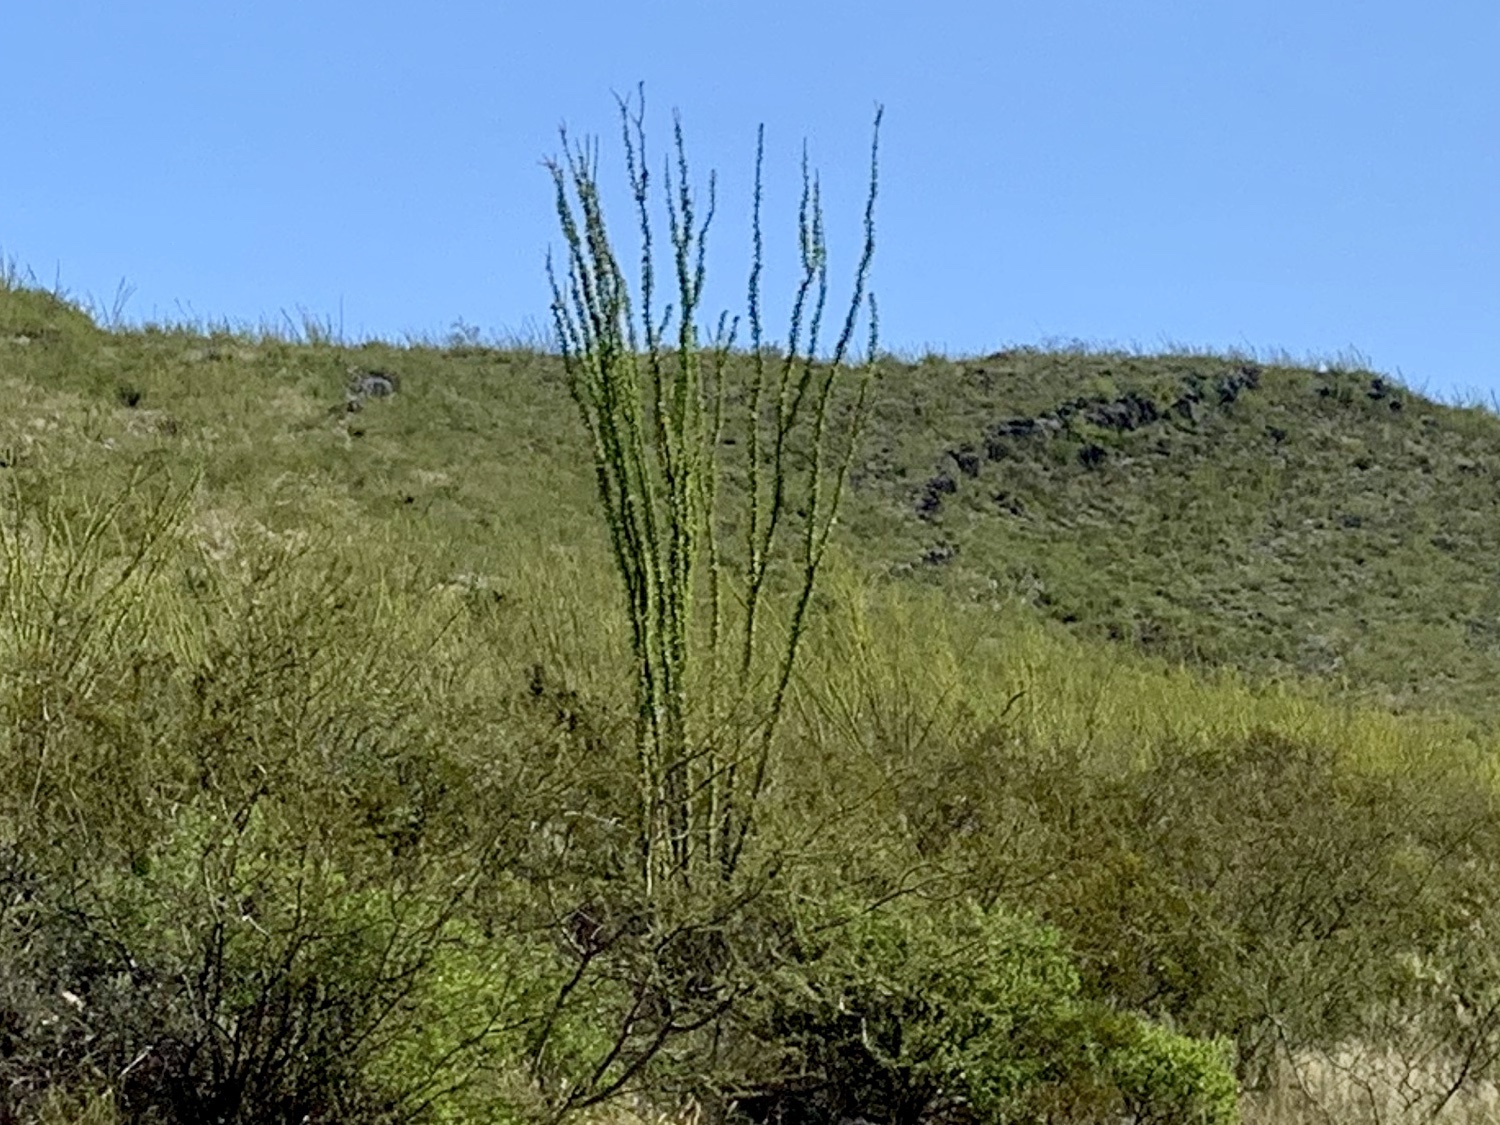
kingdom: Plantae
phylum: Tracheophyta
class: Magnoliopsida
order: Ericales
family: Fouquieriaceae
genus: Fouquieria
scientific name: Fouquieria splendens
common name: Vine-cactus
